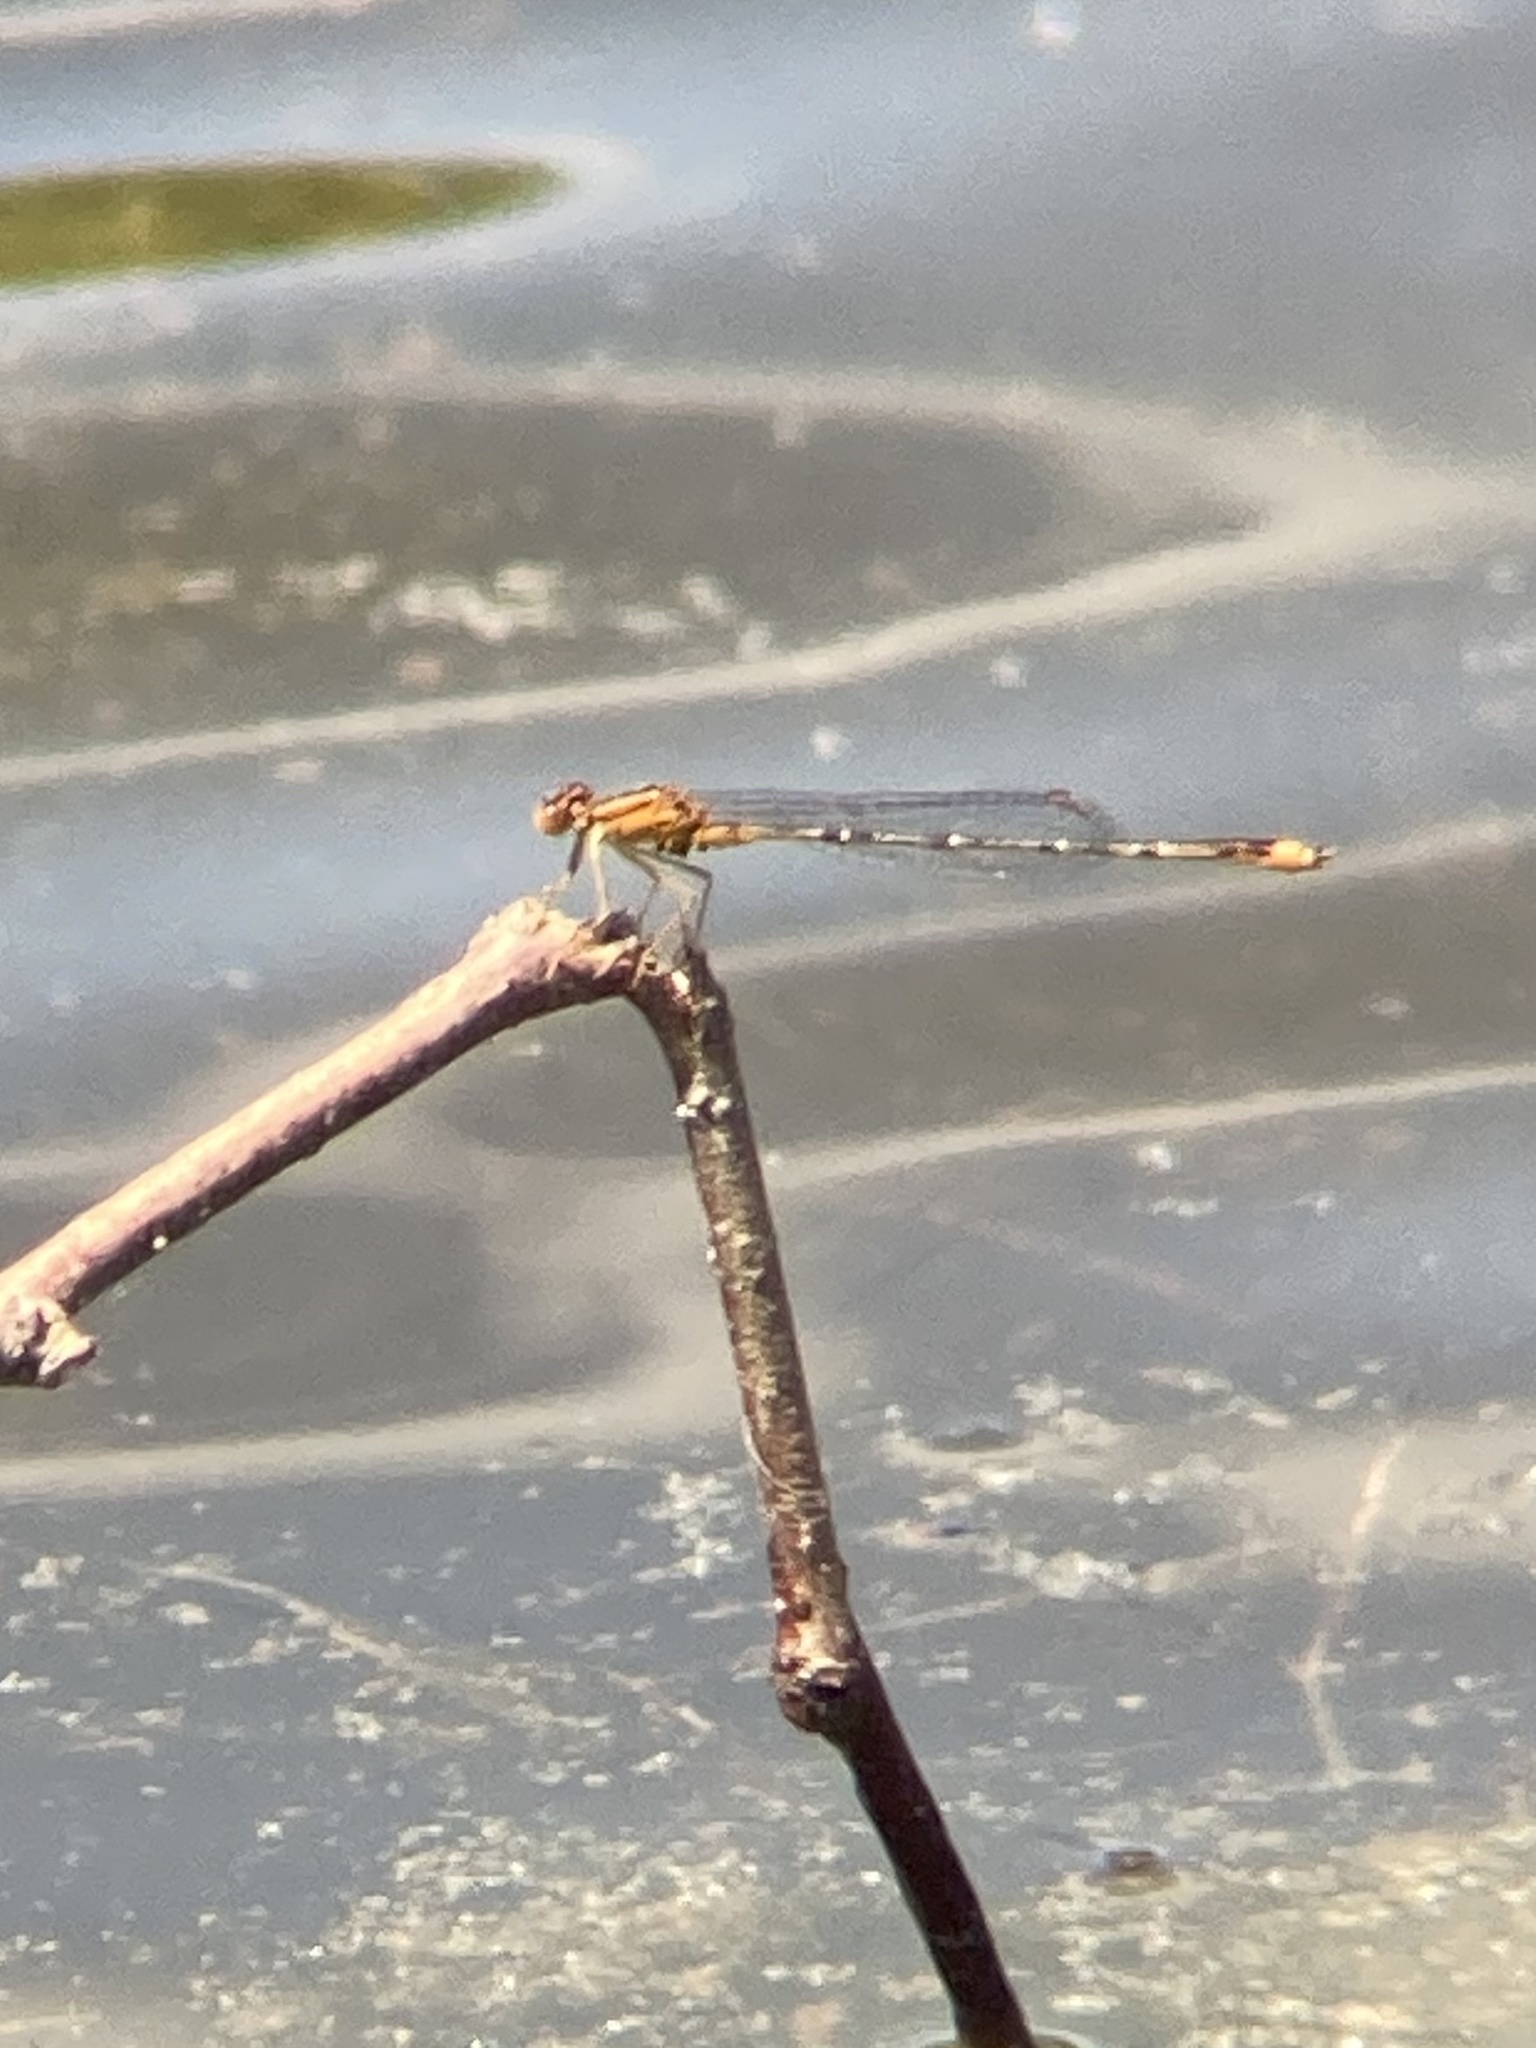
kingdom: Animalia
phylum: Arthropoda
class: Insecta
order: Odonata
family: Coenagrionidae
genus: Enallagma
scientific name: Enallagma signatum
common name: Orange bluet
